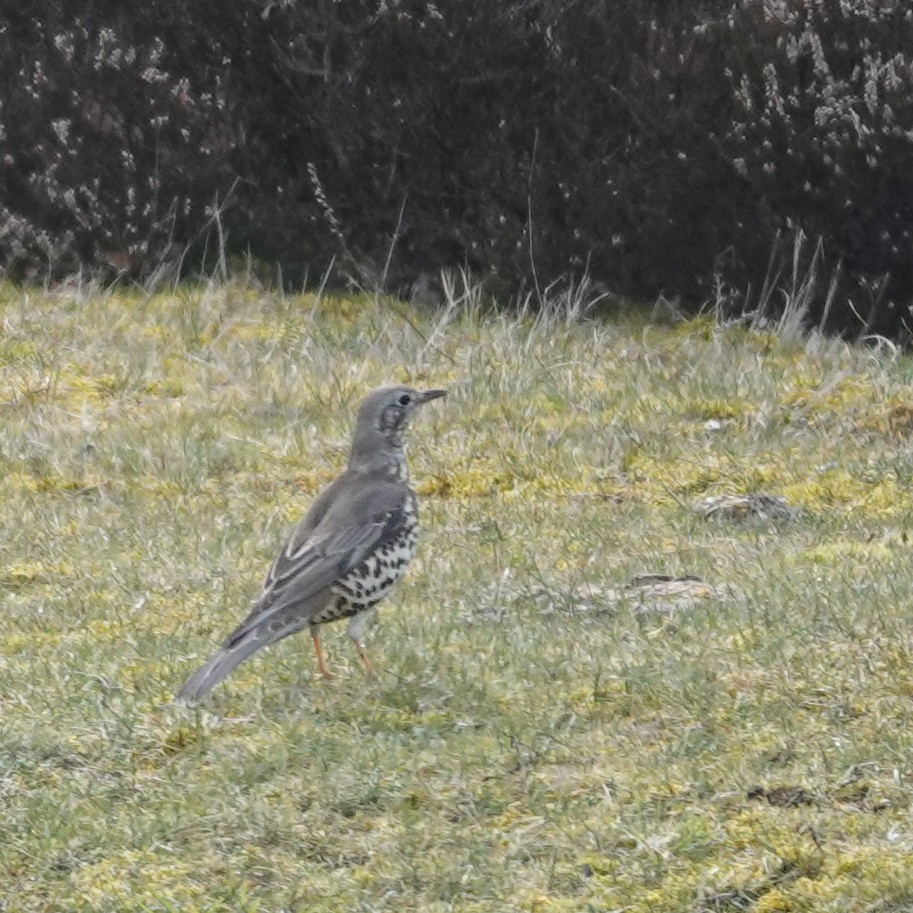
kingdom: Animalia
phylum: Chordata
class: Aves
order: Passeriformes
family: Turdidae
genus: Turdus
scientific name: Turdus viscivorus
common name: Mistle thrush
